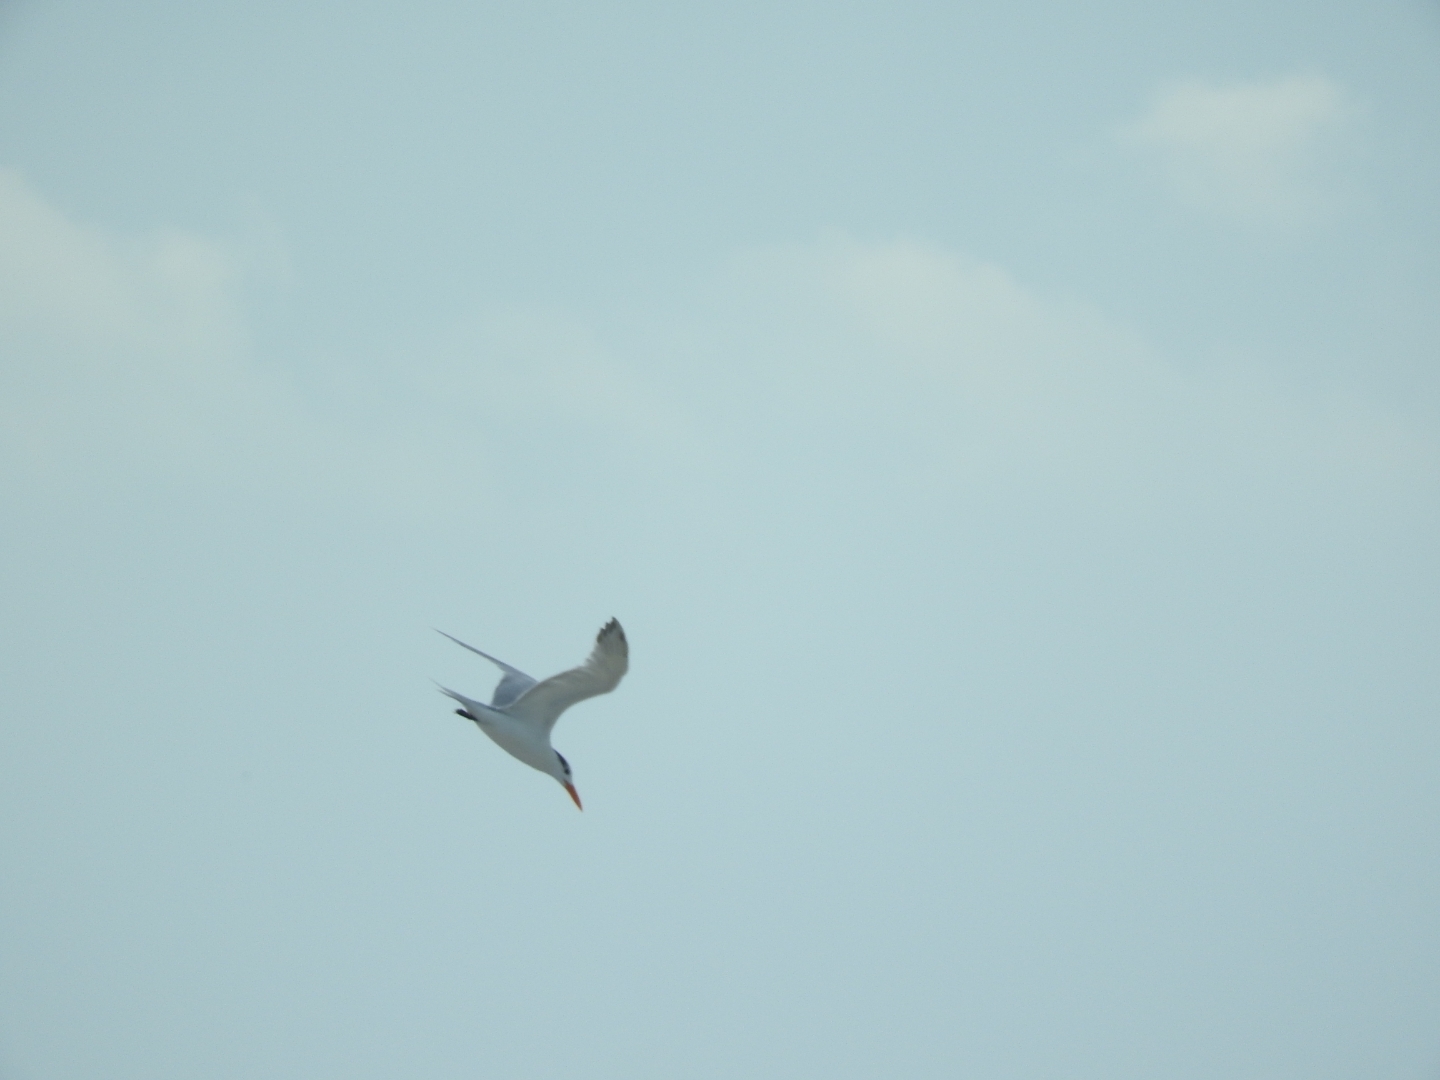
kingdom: Animalia
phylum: Chordata
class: Aves
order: Charadriiformes
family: Laridae
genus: Thalasseus
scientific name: Thalasseus maximus
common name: Royal tern
